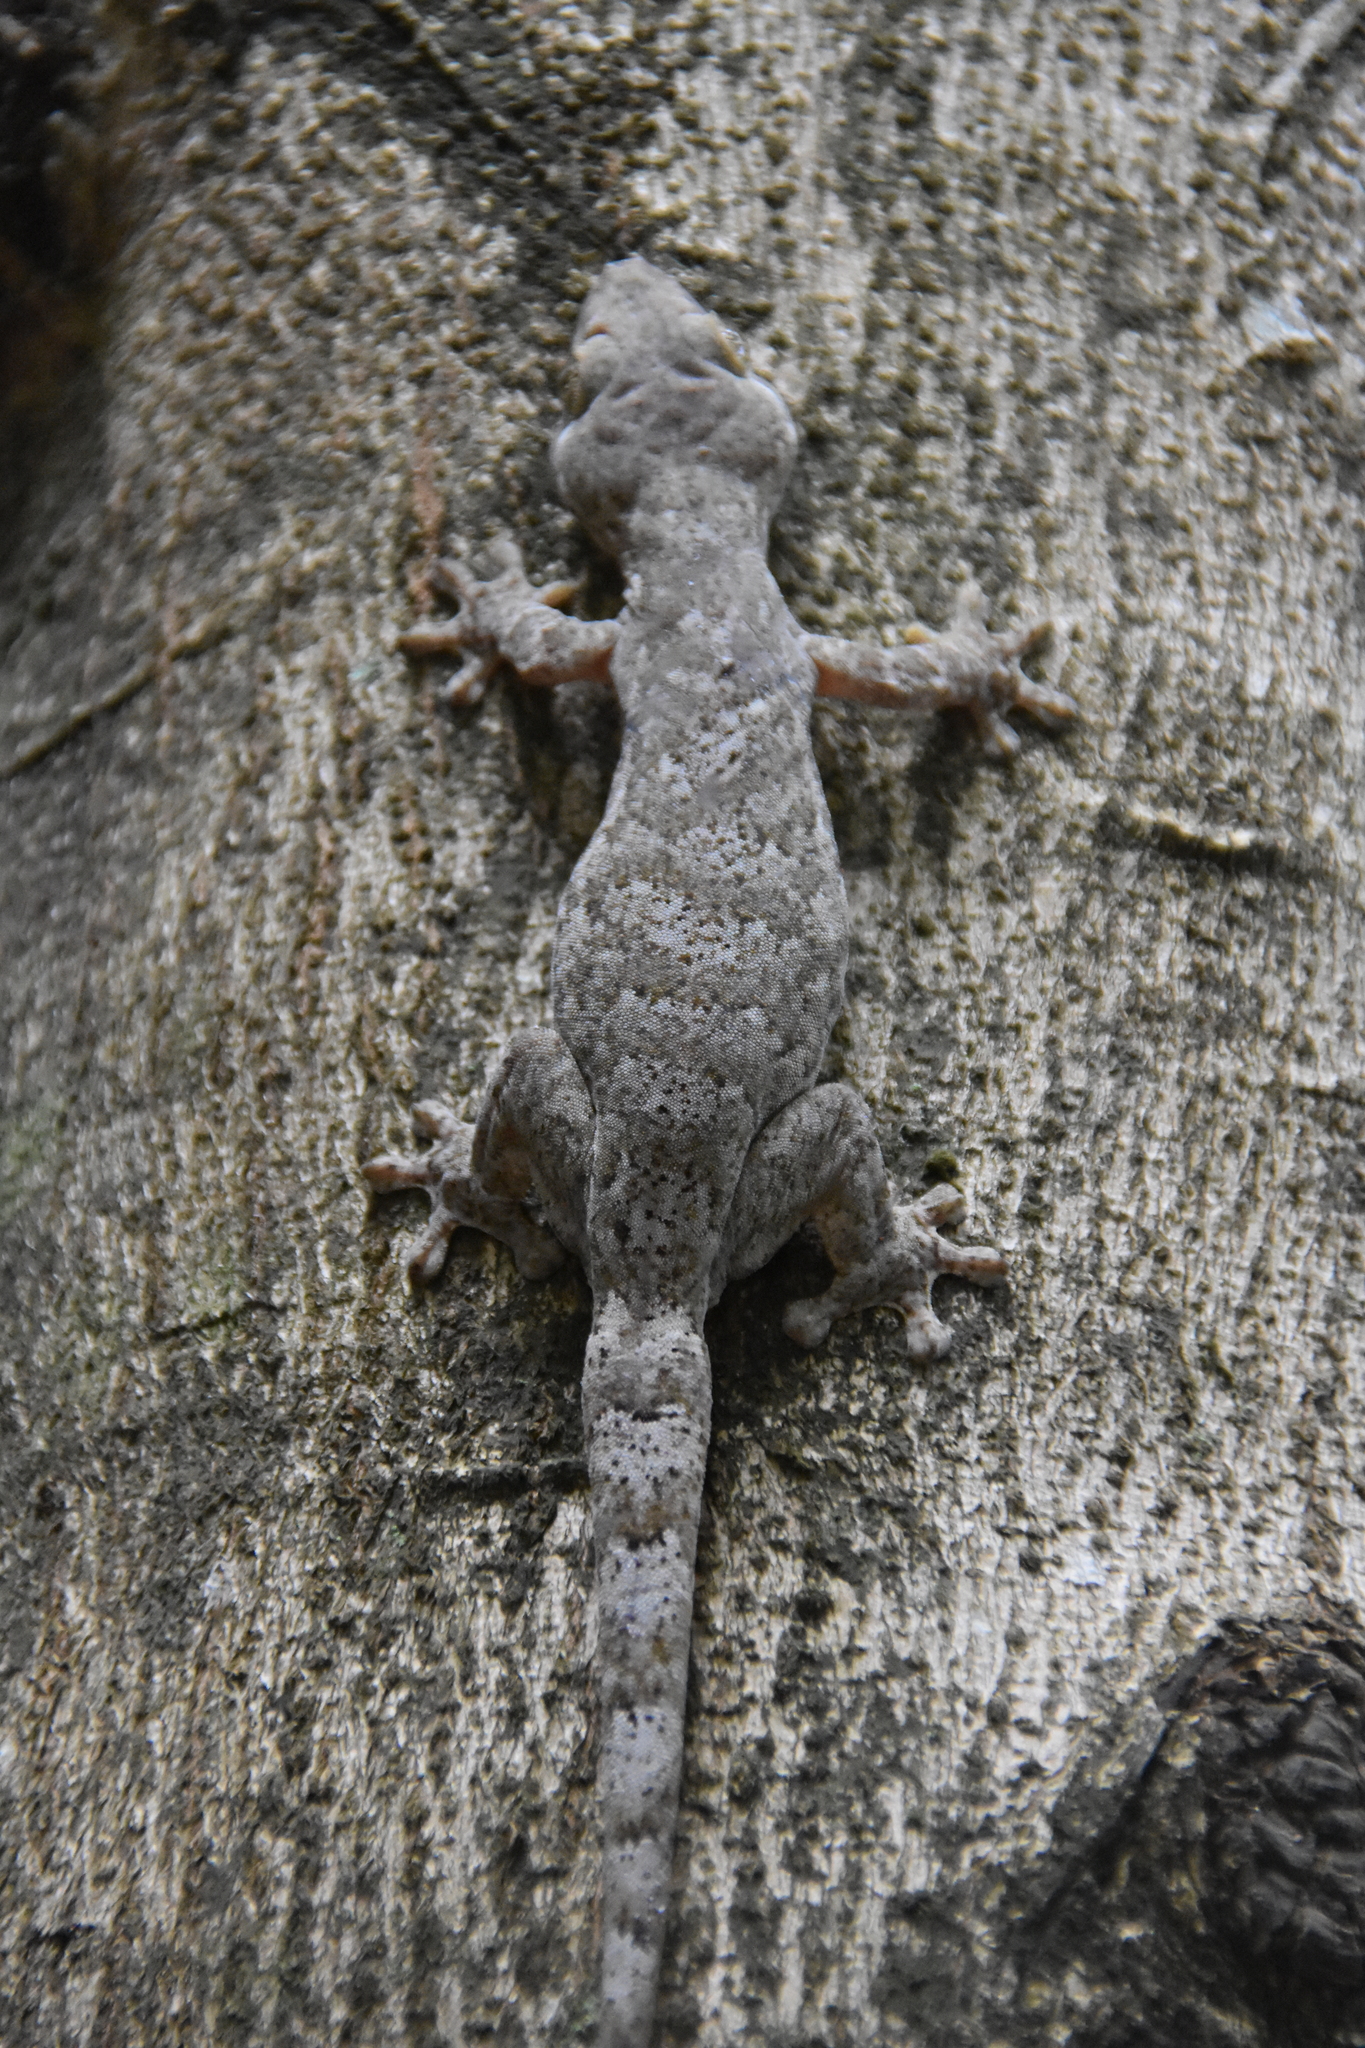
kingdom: Animalia
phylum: Chordata
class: Squamata
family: Phyllodactylidae
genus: Thecadactylus
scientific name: Thecadactylus rapicauda
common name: Turnip-tailed gecko
